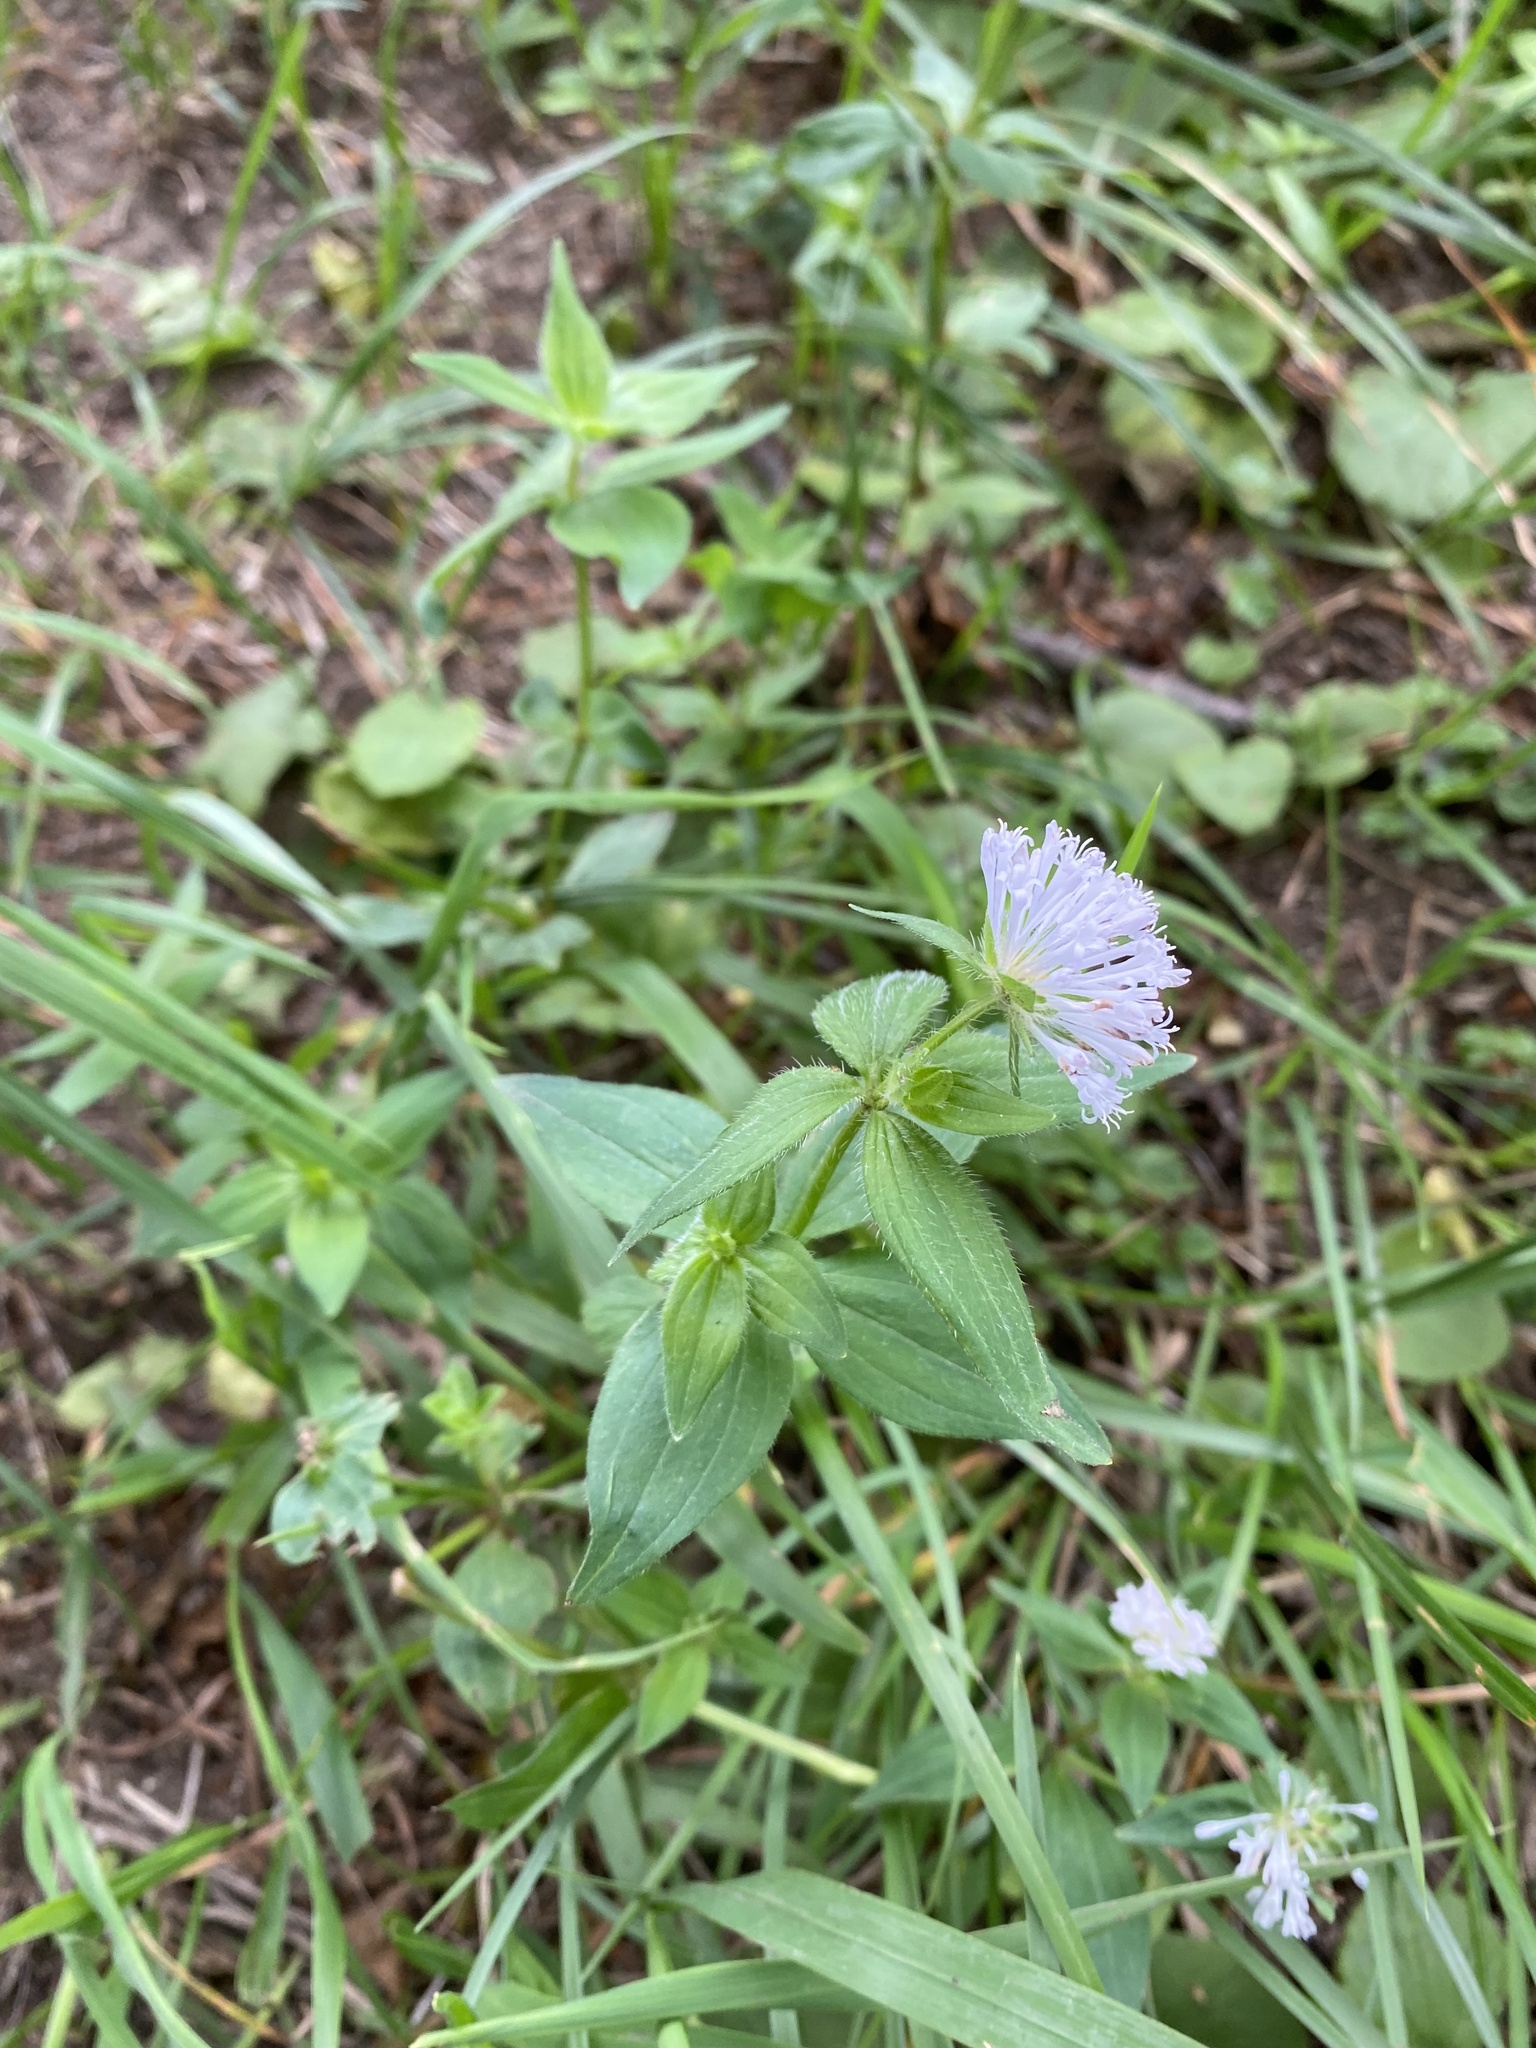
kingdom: Plantae
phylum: Tracheophyta
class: Magnoliopsida
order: Gentianales
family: Rubiaceae
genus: Asperula
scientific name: Asperula taurina
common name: Pink woodruff
